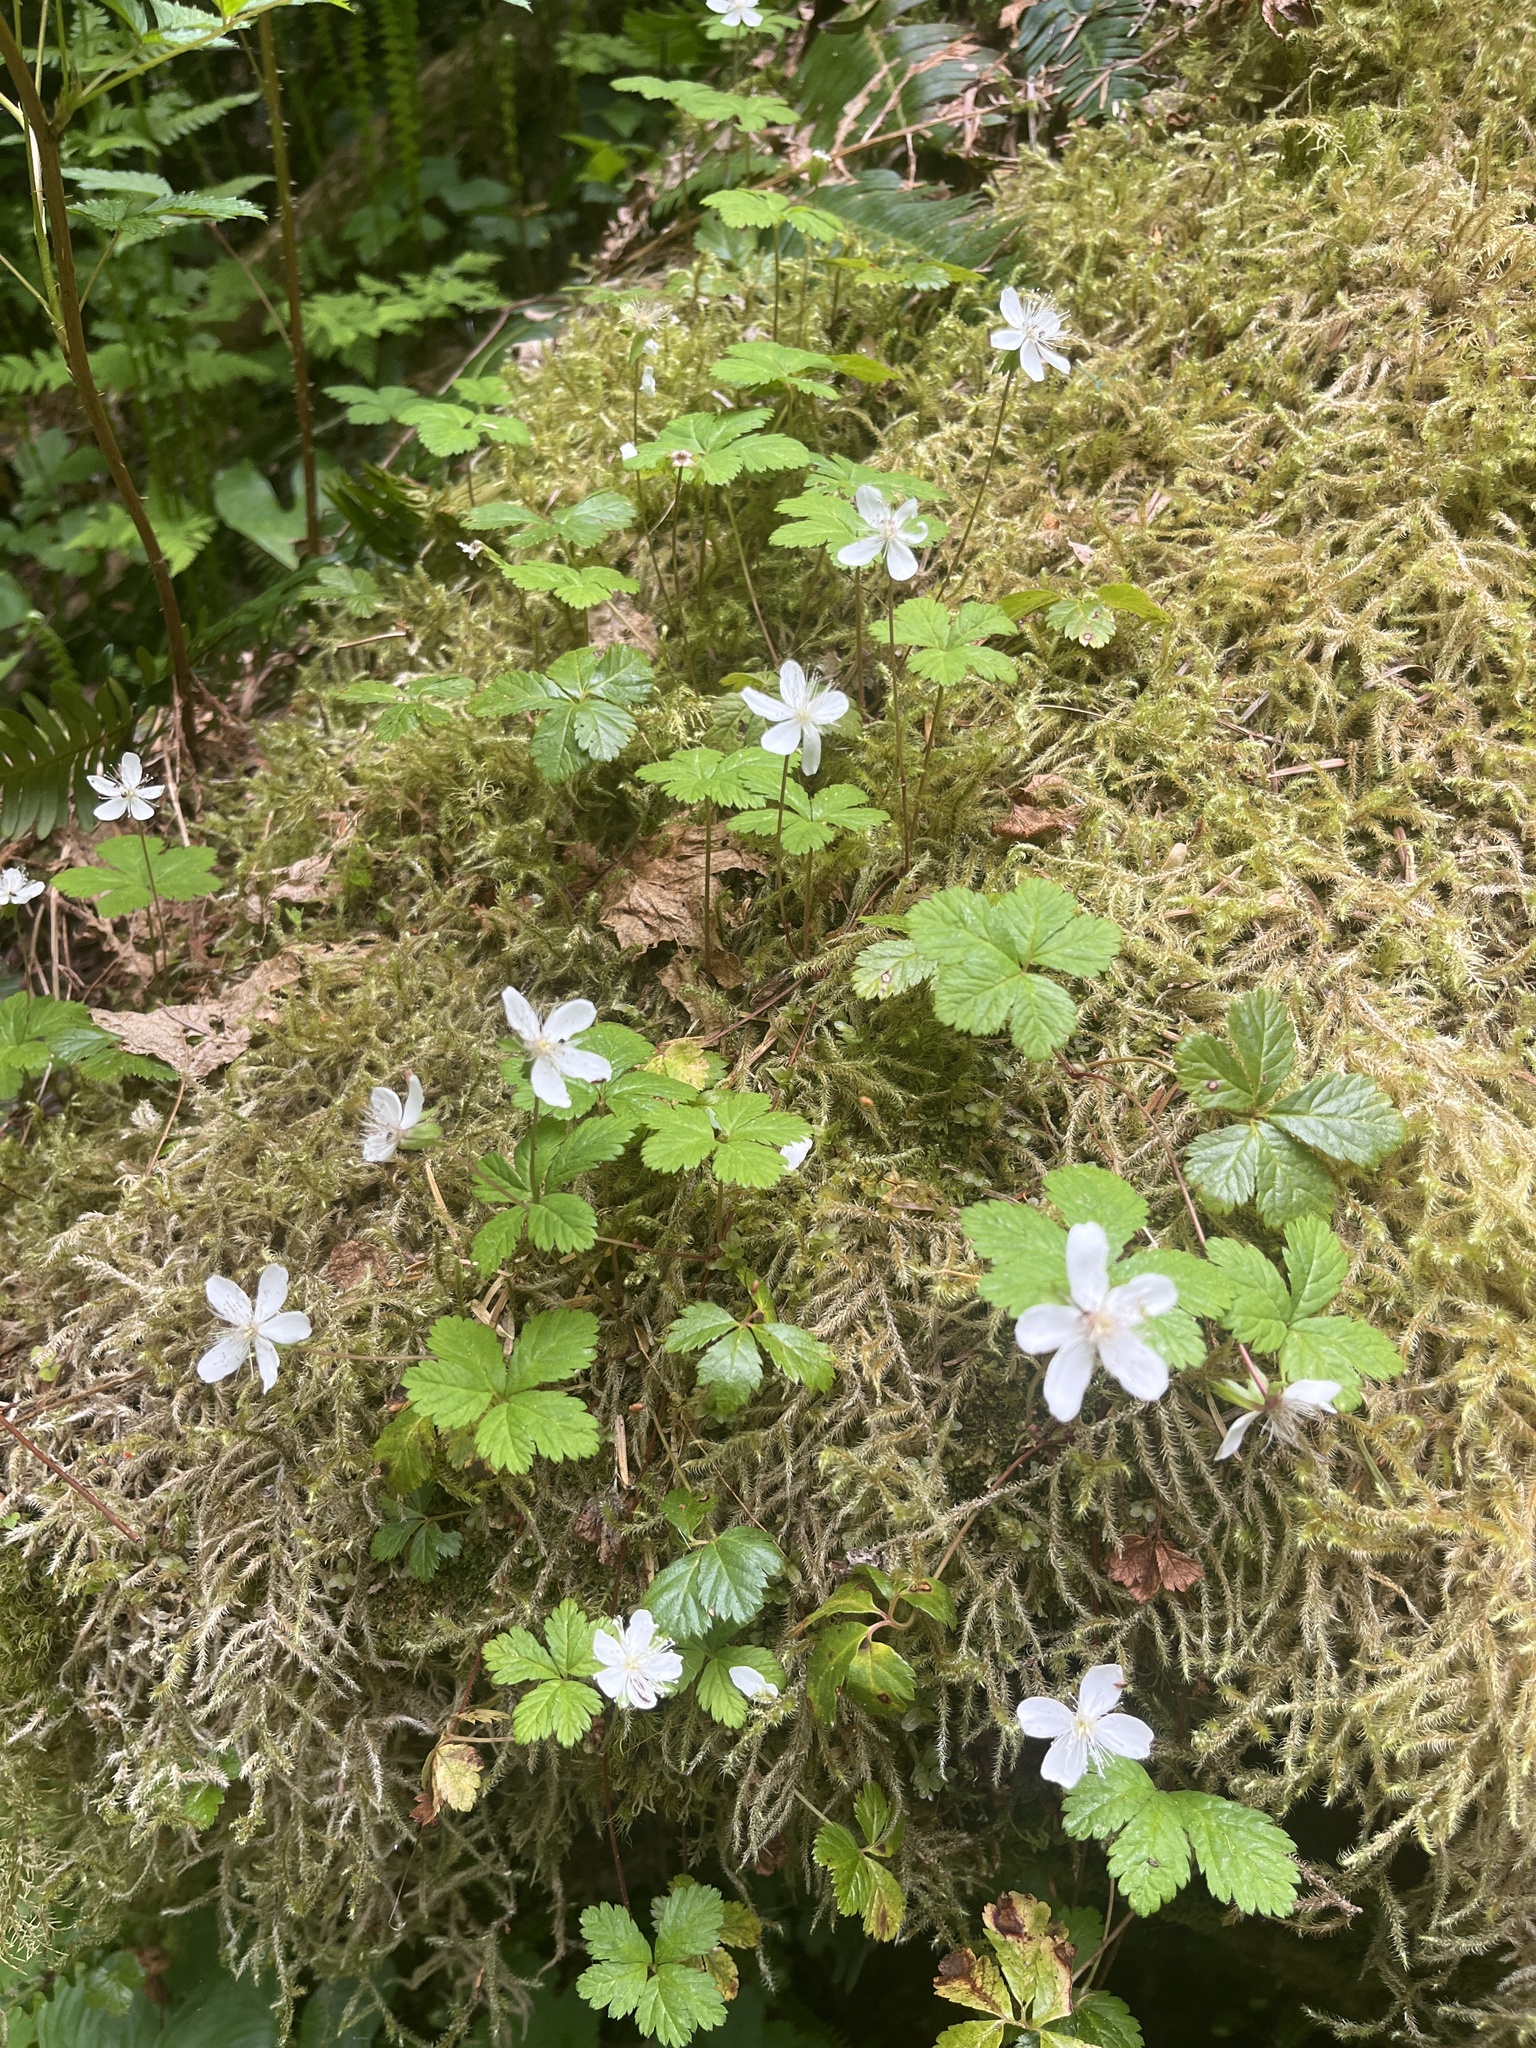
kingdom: Plantae
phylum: Tracheophyta
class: Magnoliopsida
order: Rosales
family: Rosaceae
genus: Rubus
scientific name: Rubus pedatus
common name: Creeping raspberry
